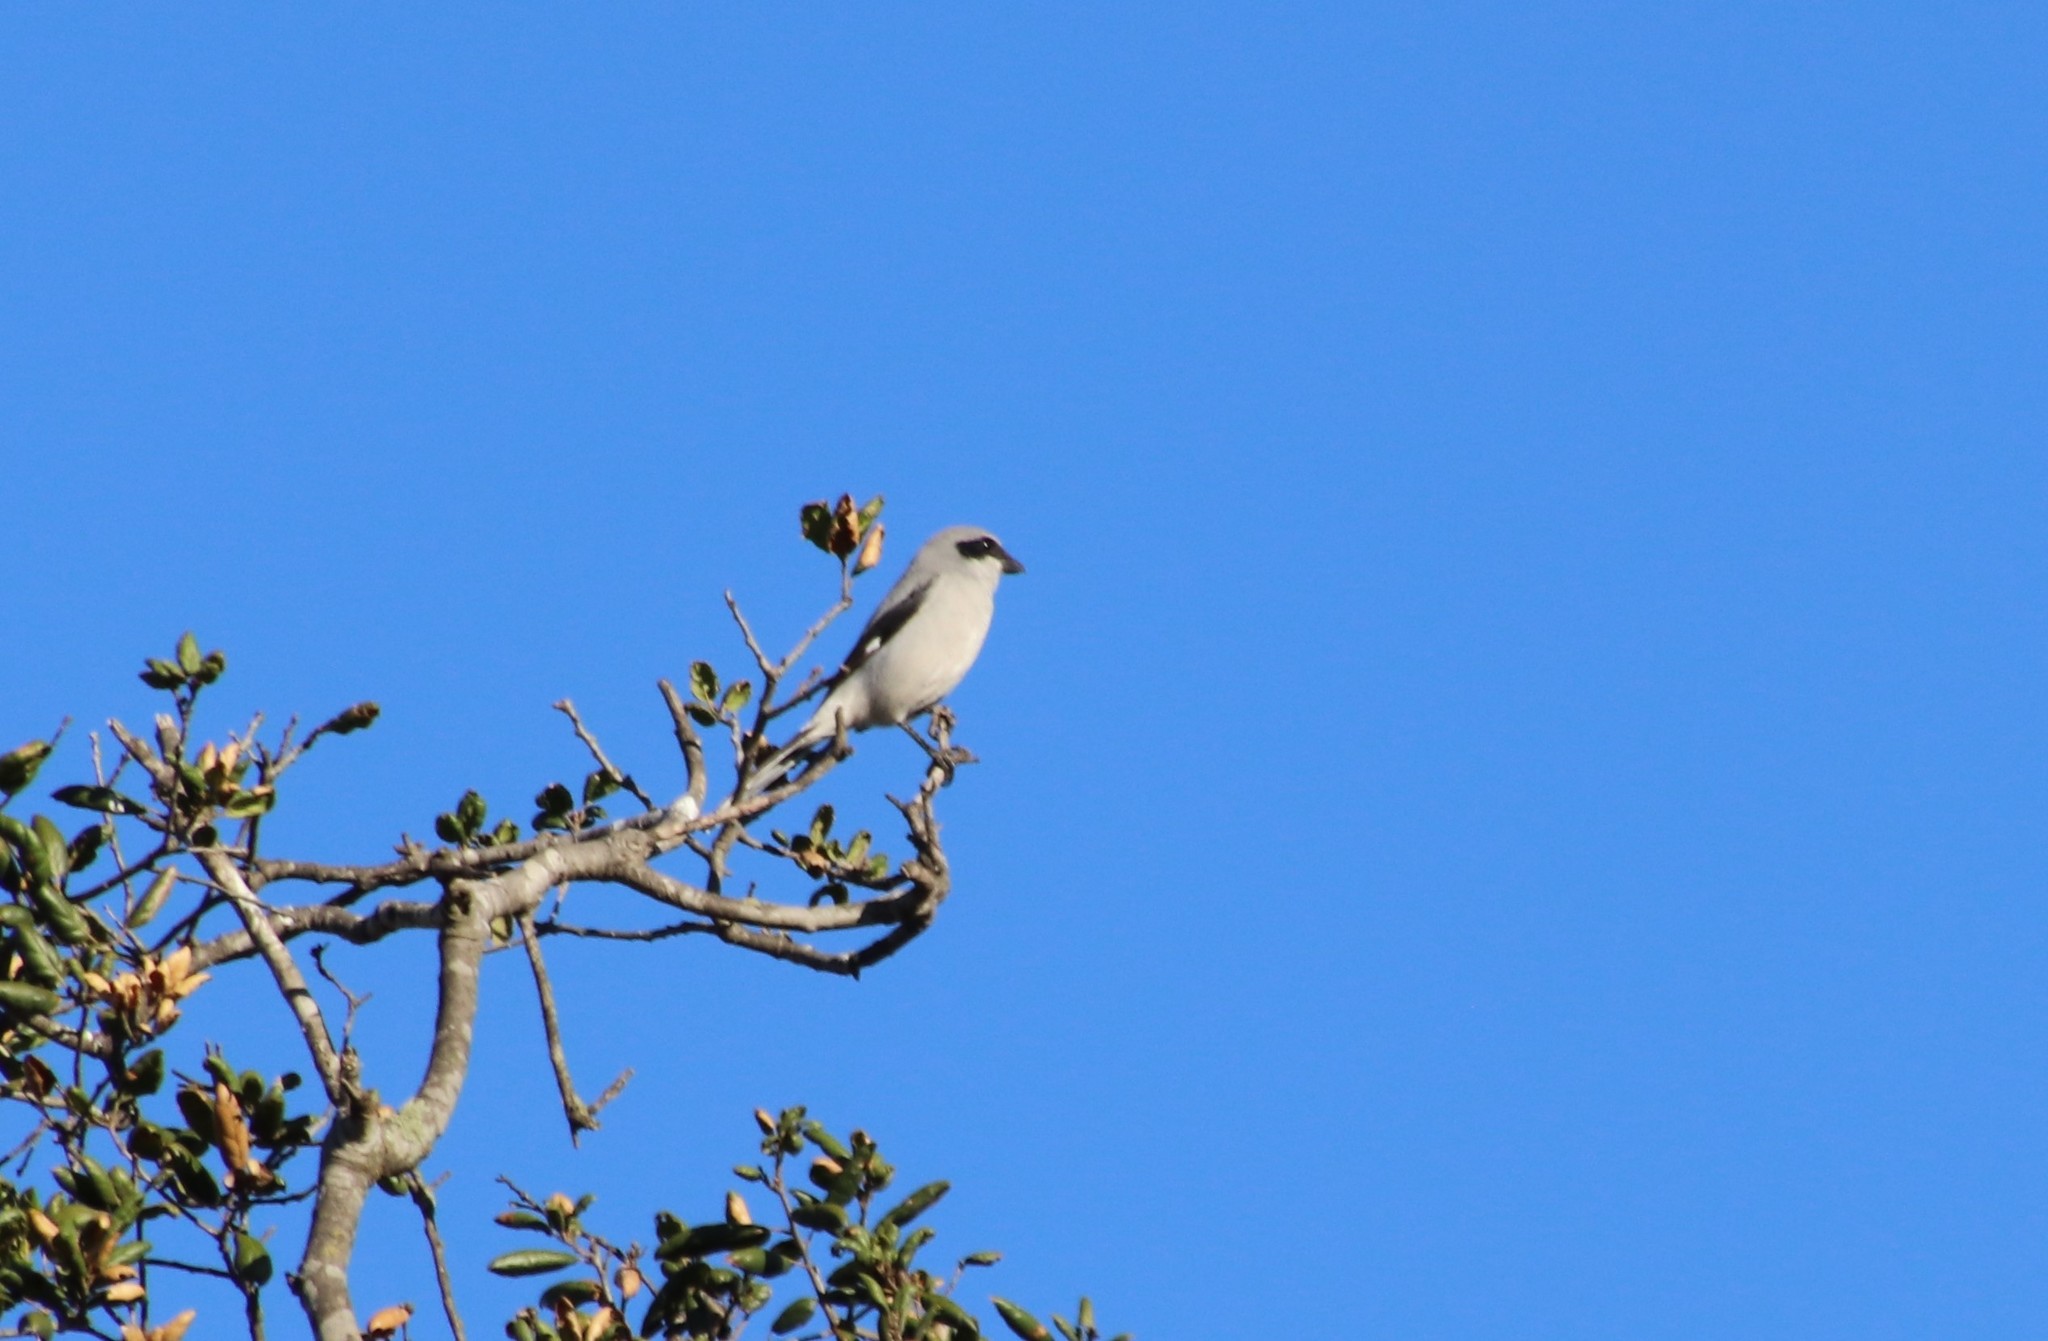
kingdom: Animalia
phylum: Chordata
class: Aves
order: Passeriformes
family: Laniidae
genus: Lanius
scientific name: Lanius ludovicianus
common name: Loggerhead shrike
